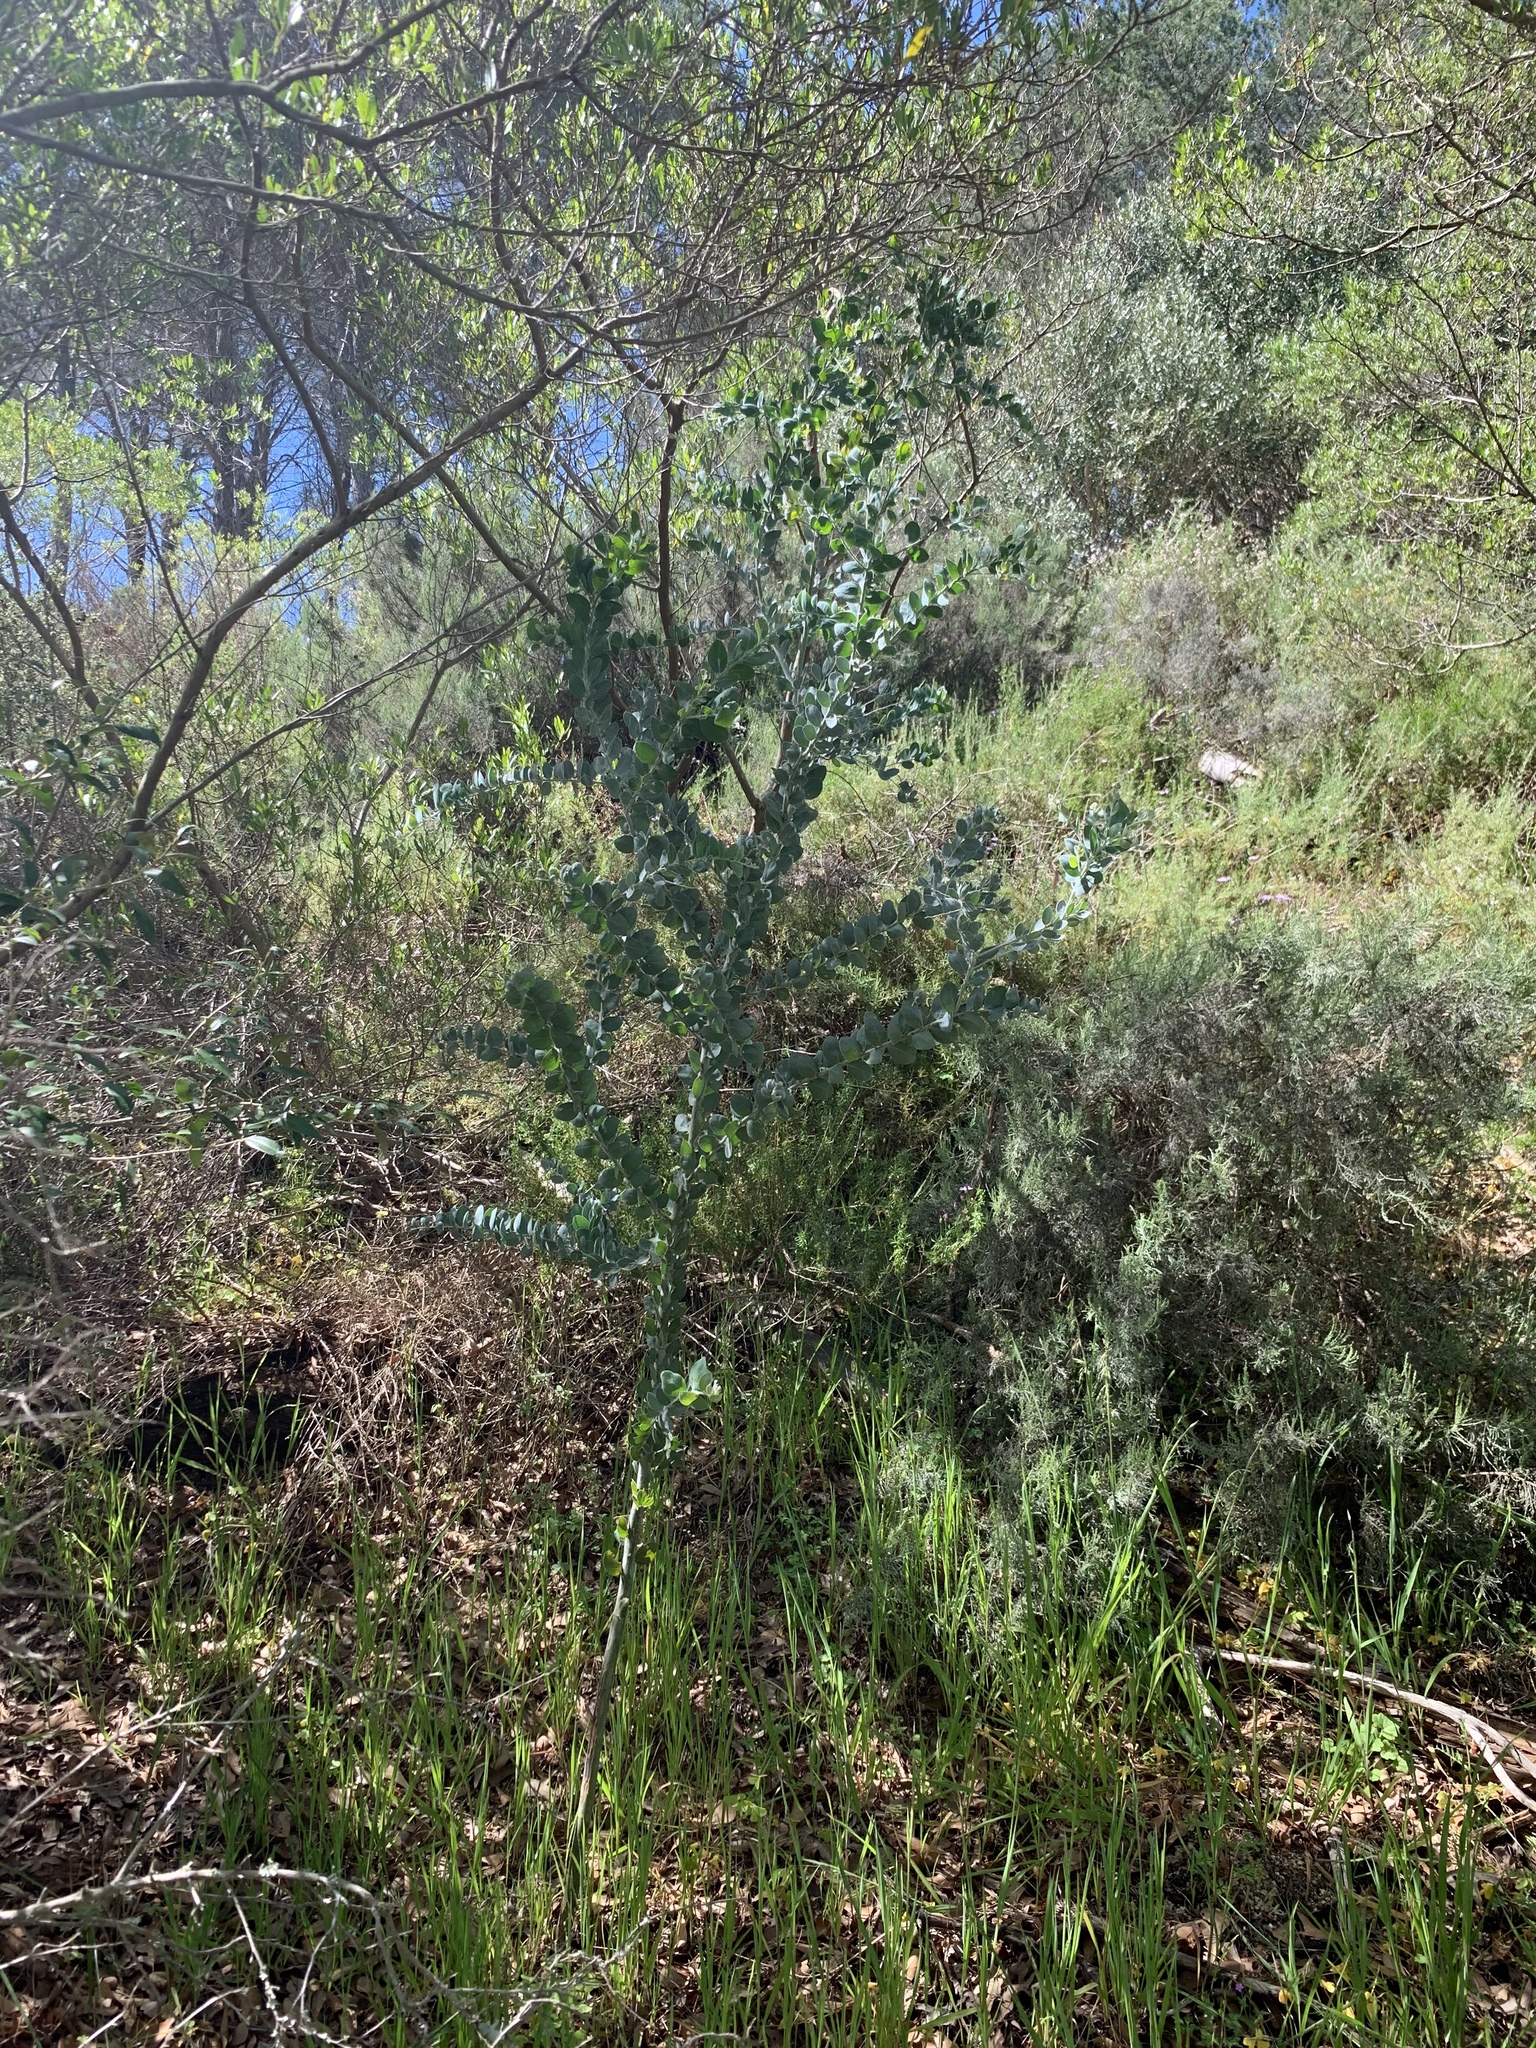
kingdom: Plantae
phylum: Tracheophyta
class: Magnoliopsida
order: Fabales
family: Fabaceae
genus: Acacia
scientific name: Acacia podalyriifolia
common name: Pearl wattle
